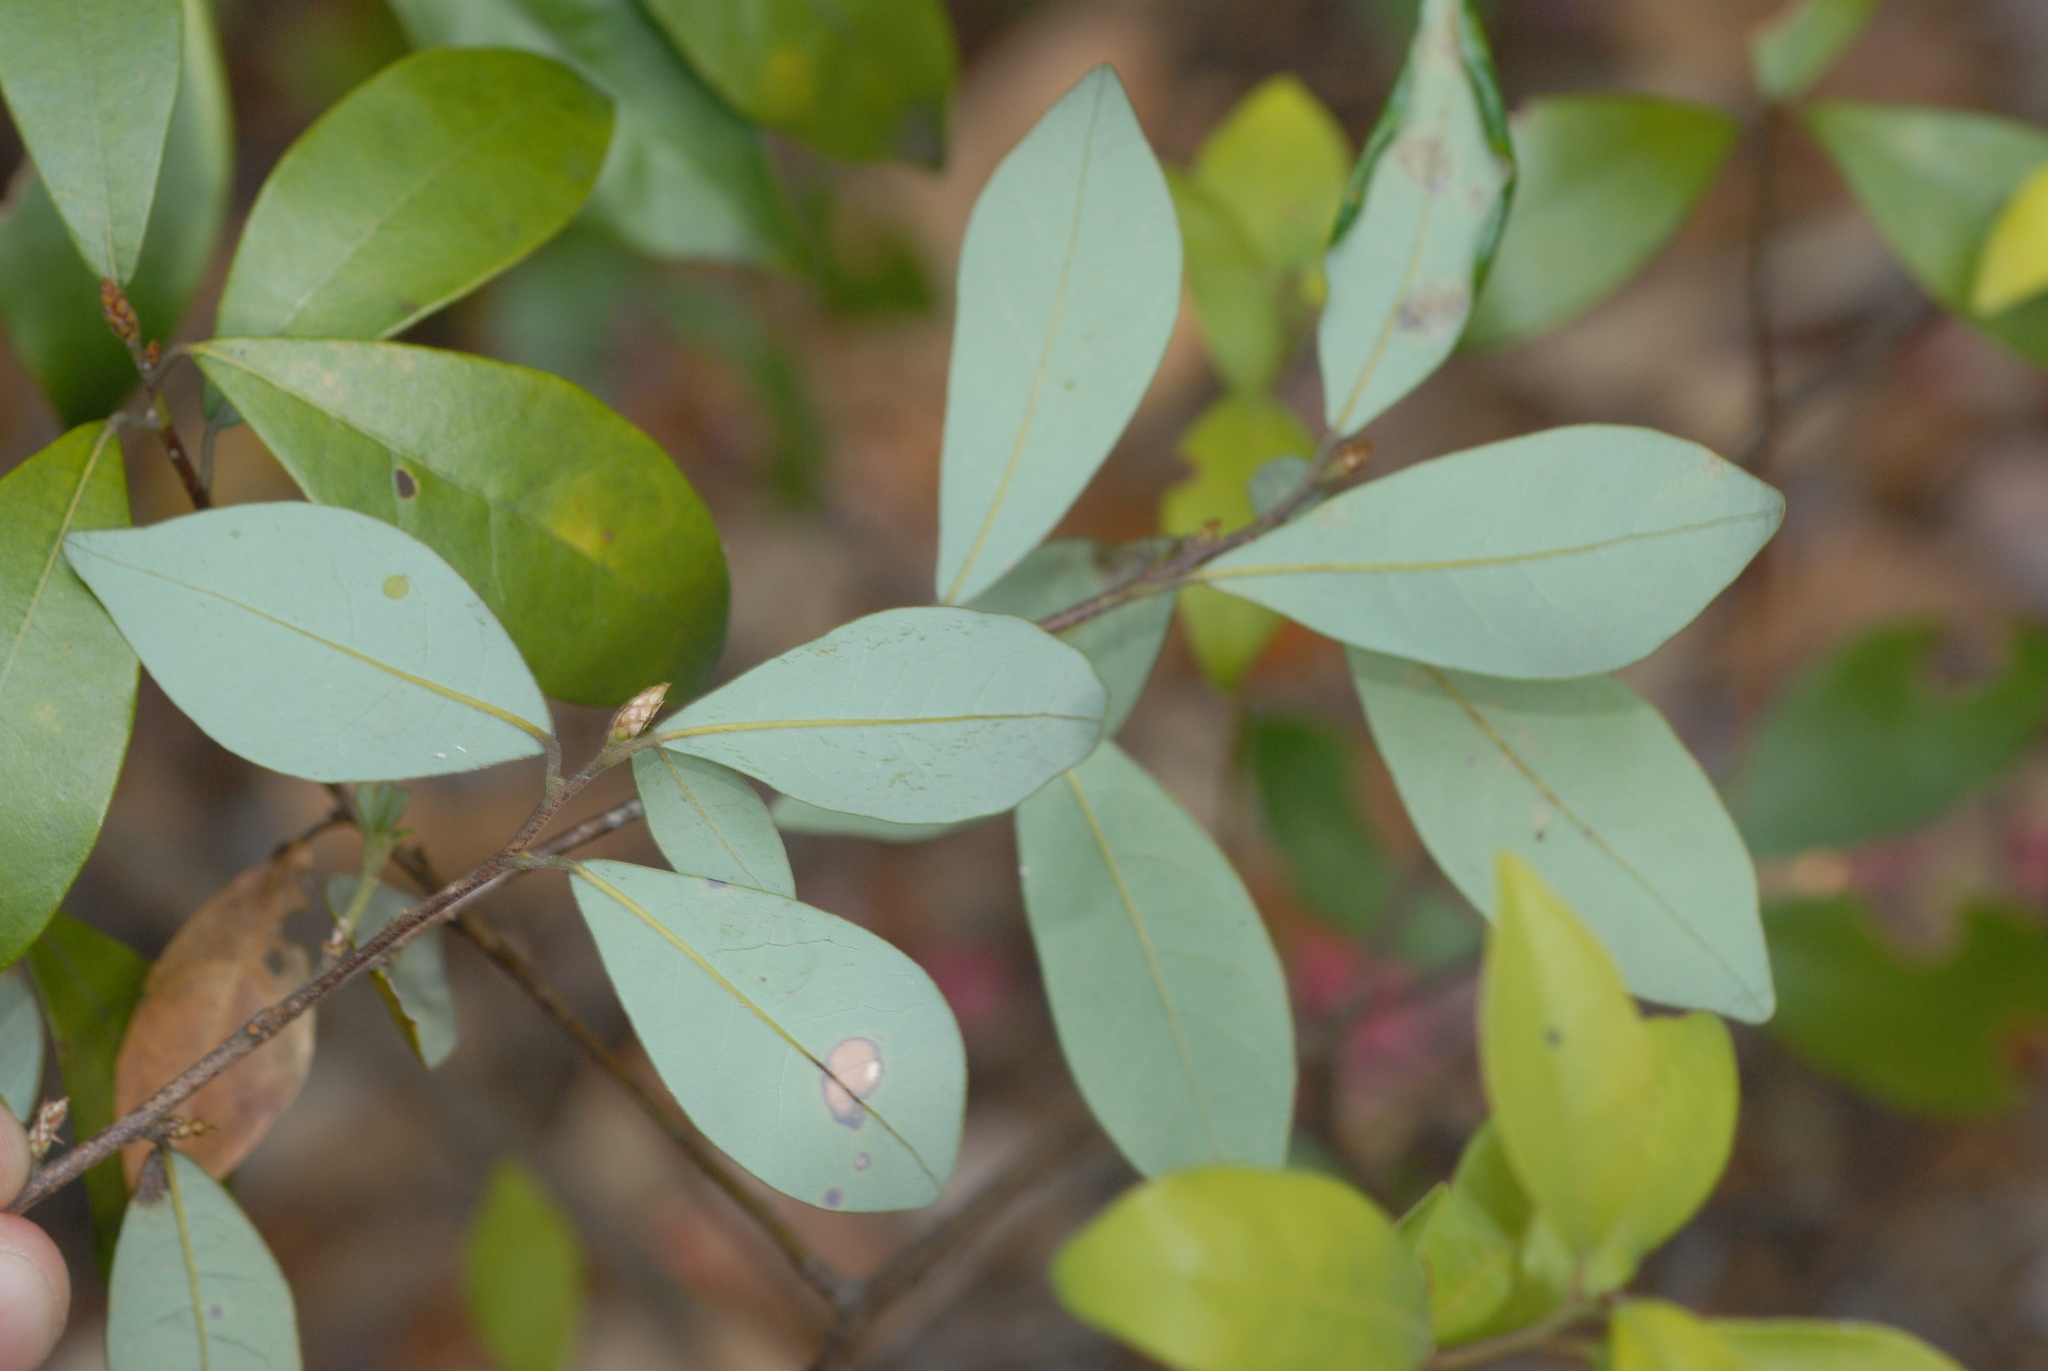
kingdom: Plantae
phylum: Tracheophyta
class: Magnoliopsida
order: Laurales
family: Lauraceae
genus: Litsea
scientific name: Litsea rotundifolia
